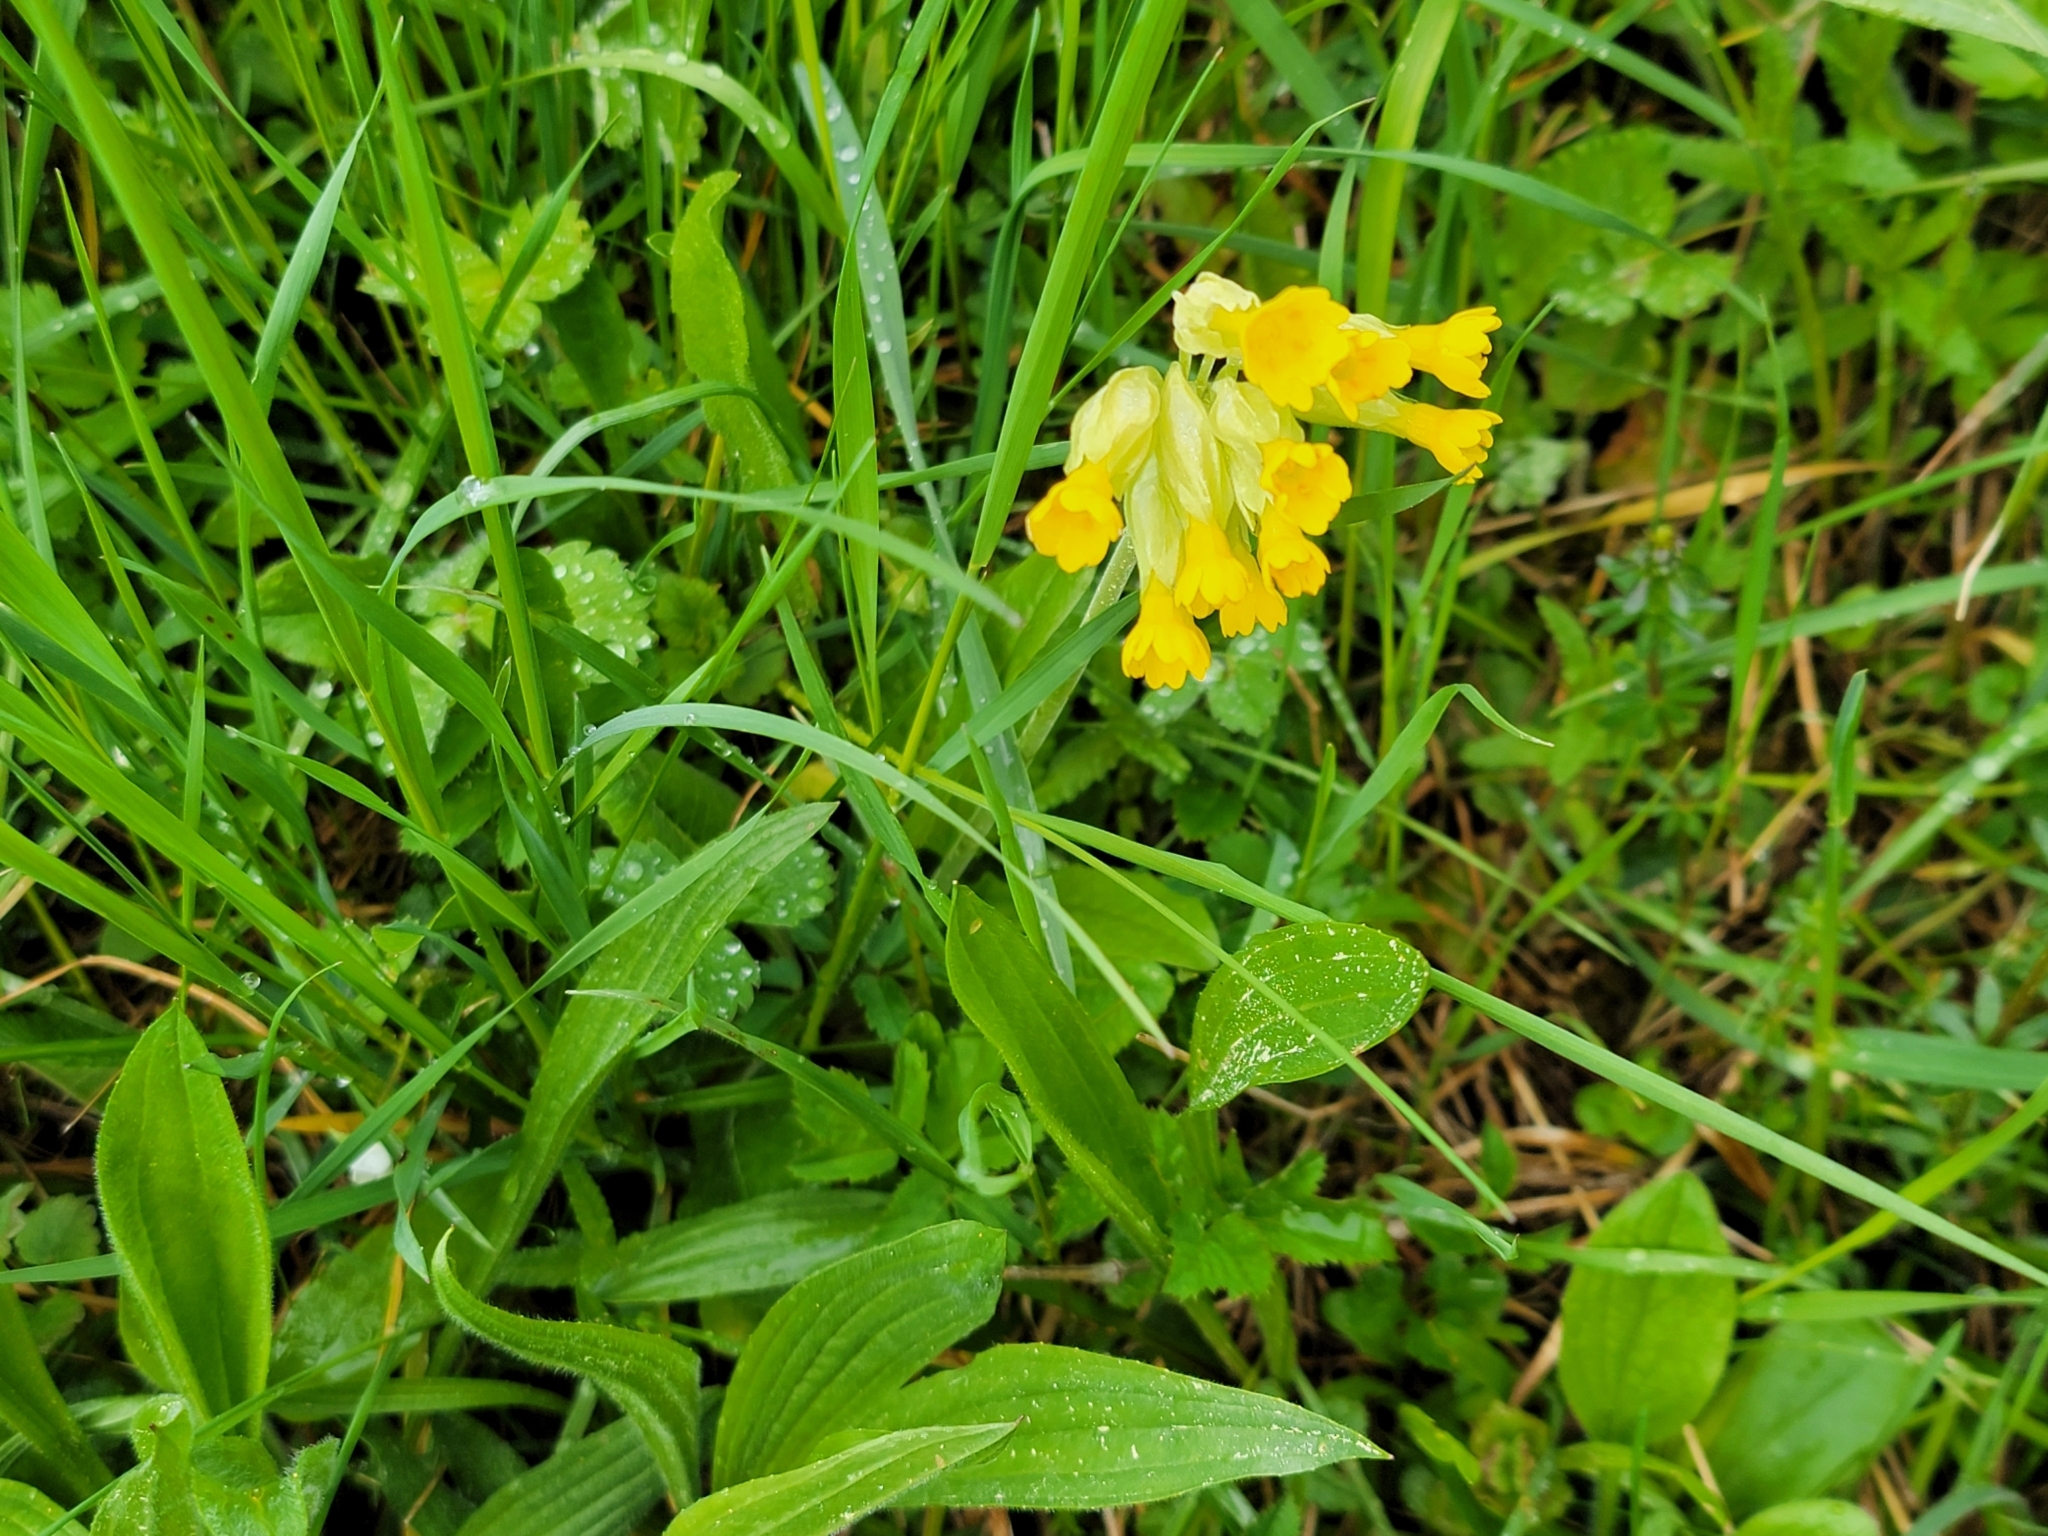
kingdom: Plantae
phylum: Tracheophyta
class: Magnoliopsida
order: Ericales
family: Primulaceae
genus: Primula
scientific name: Primula veris
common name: Cowslip
